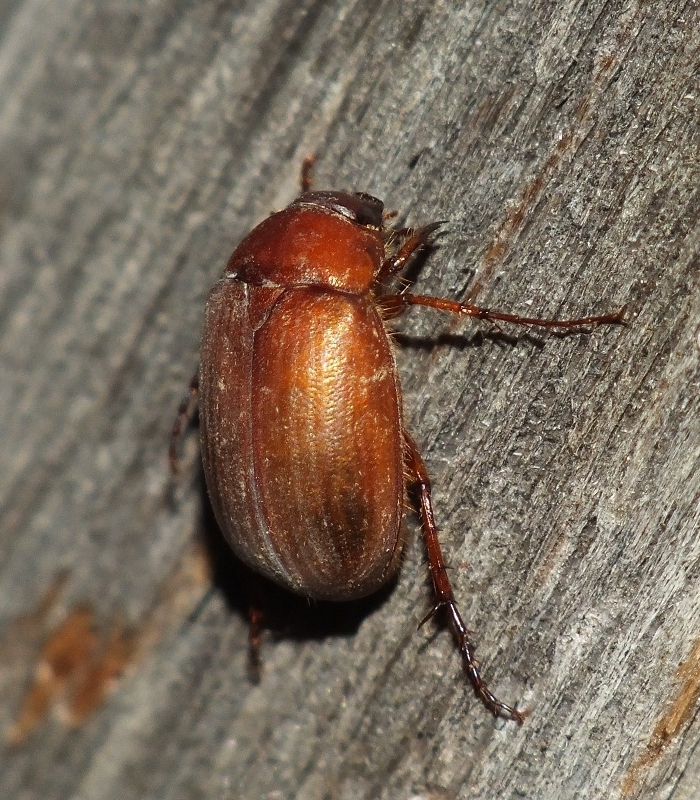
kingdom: Animalia
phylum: Arthropoda
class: Insecta
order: Coleoptera
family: Scarabaeidae
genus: Serica
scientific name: Serica brunnea
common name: Brown chafer
